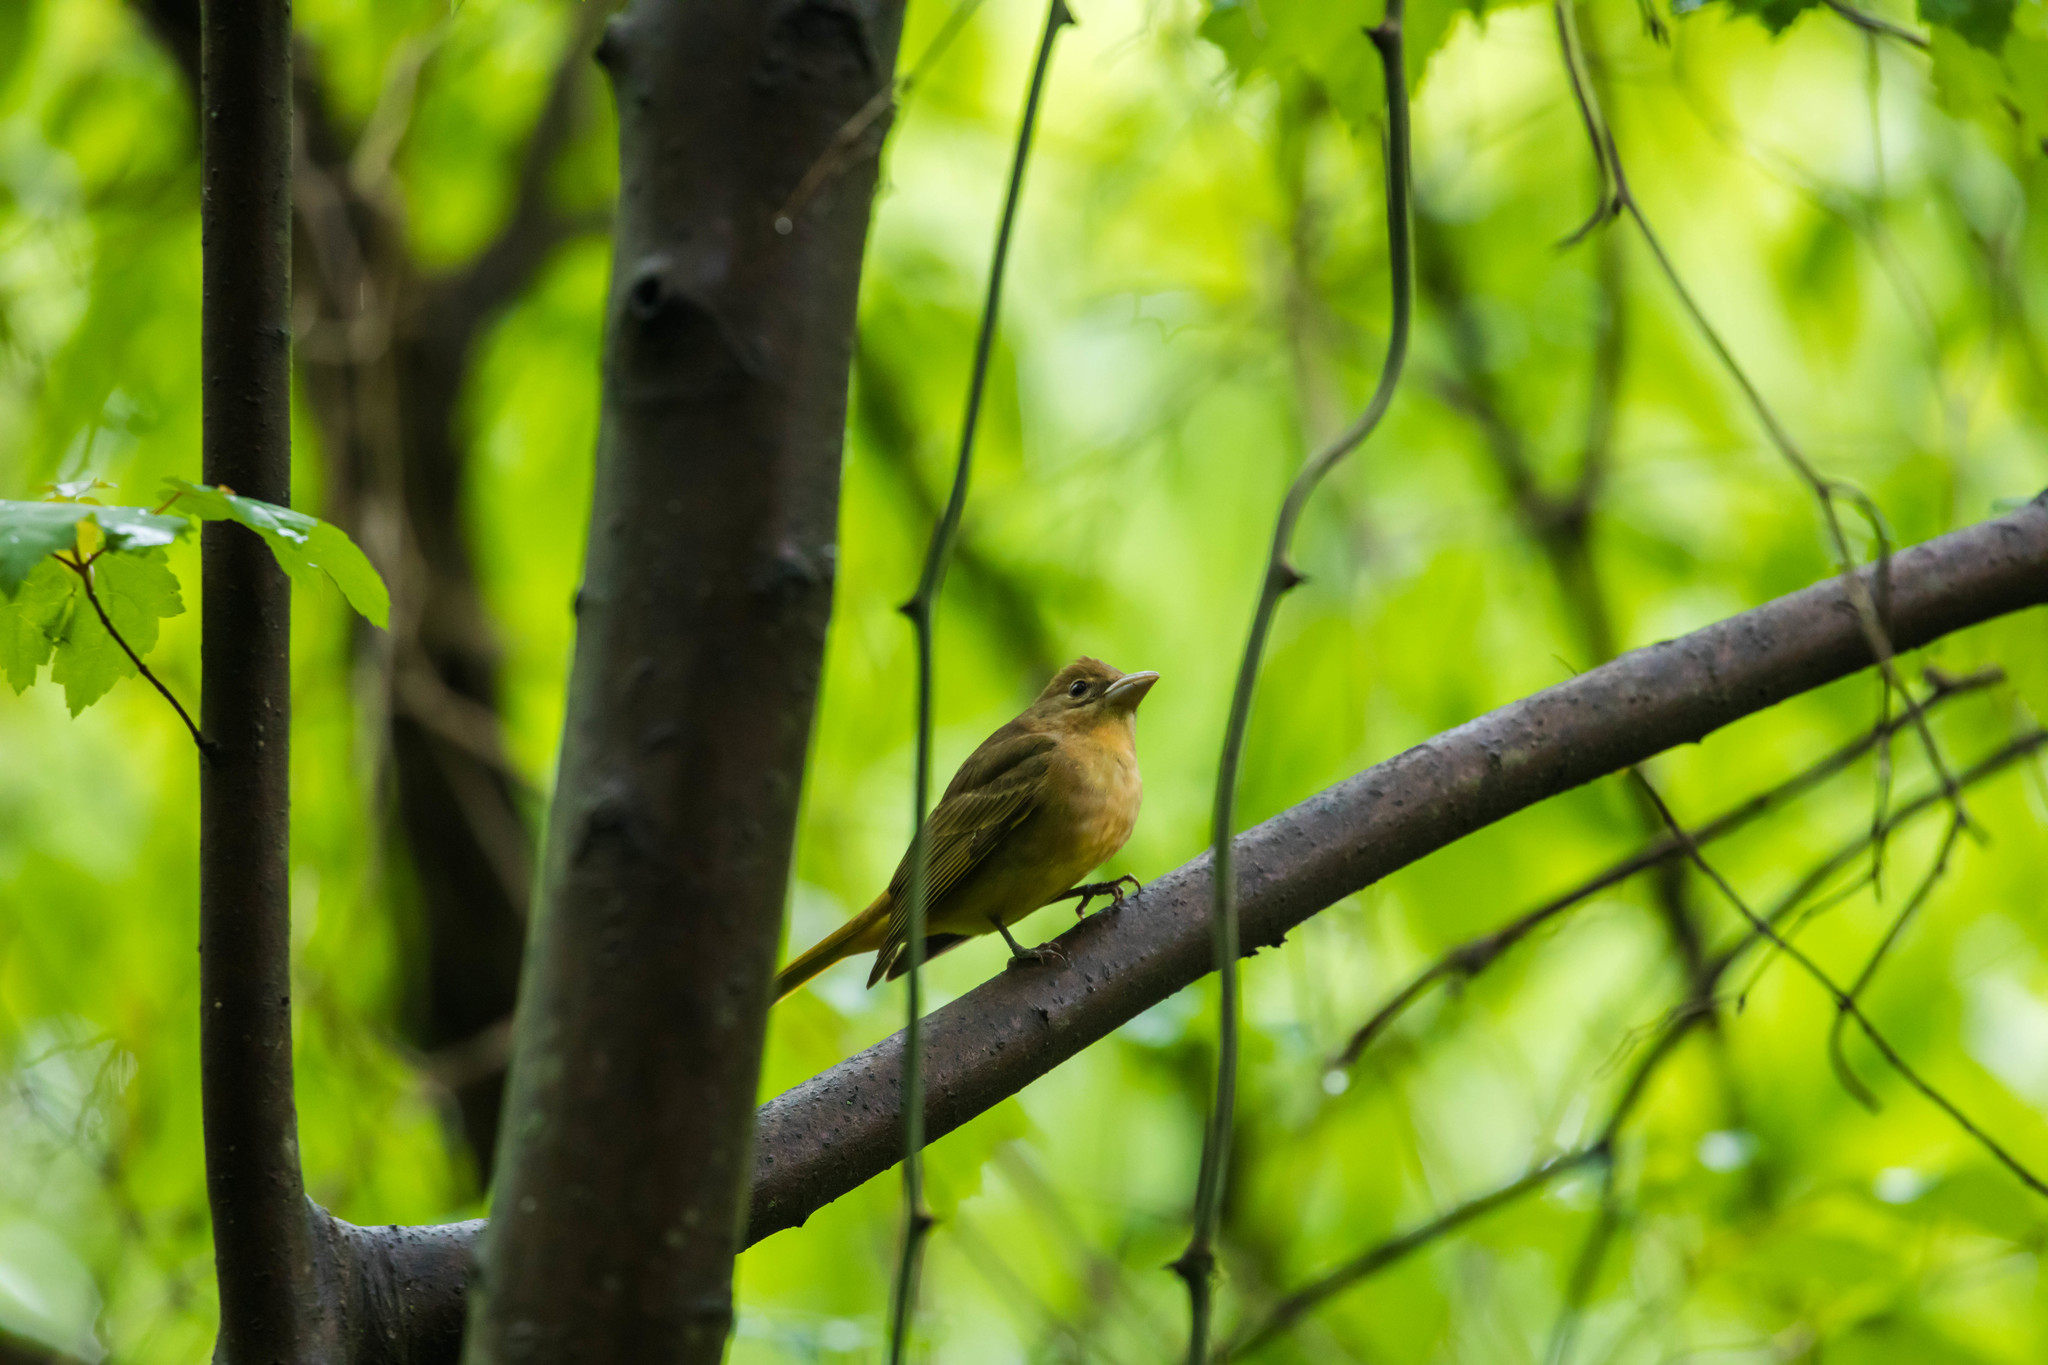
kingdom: Animalia
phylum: Chordata
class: Aves
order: Passeriformes
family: Cardinalidae
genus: Piranga
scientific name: Piranga rubra
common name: Summer tanager
